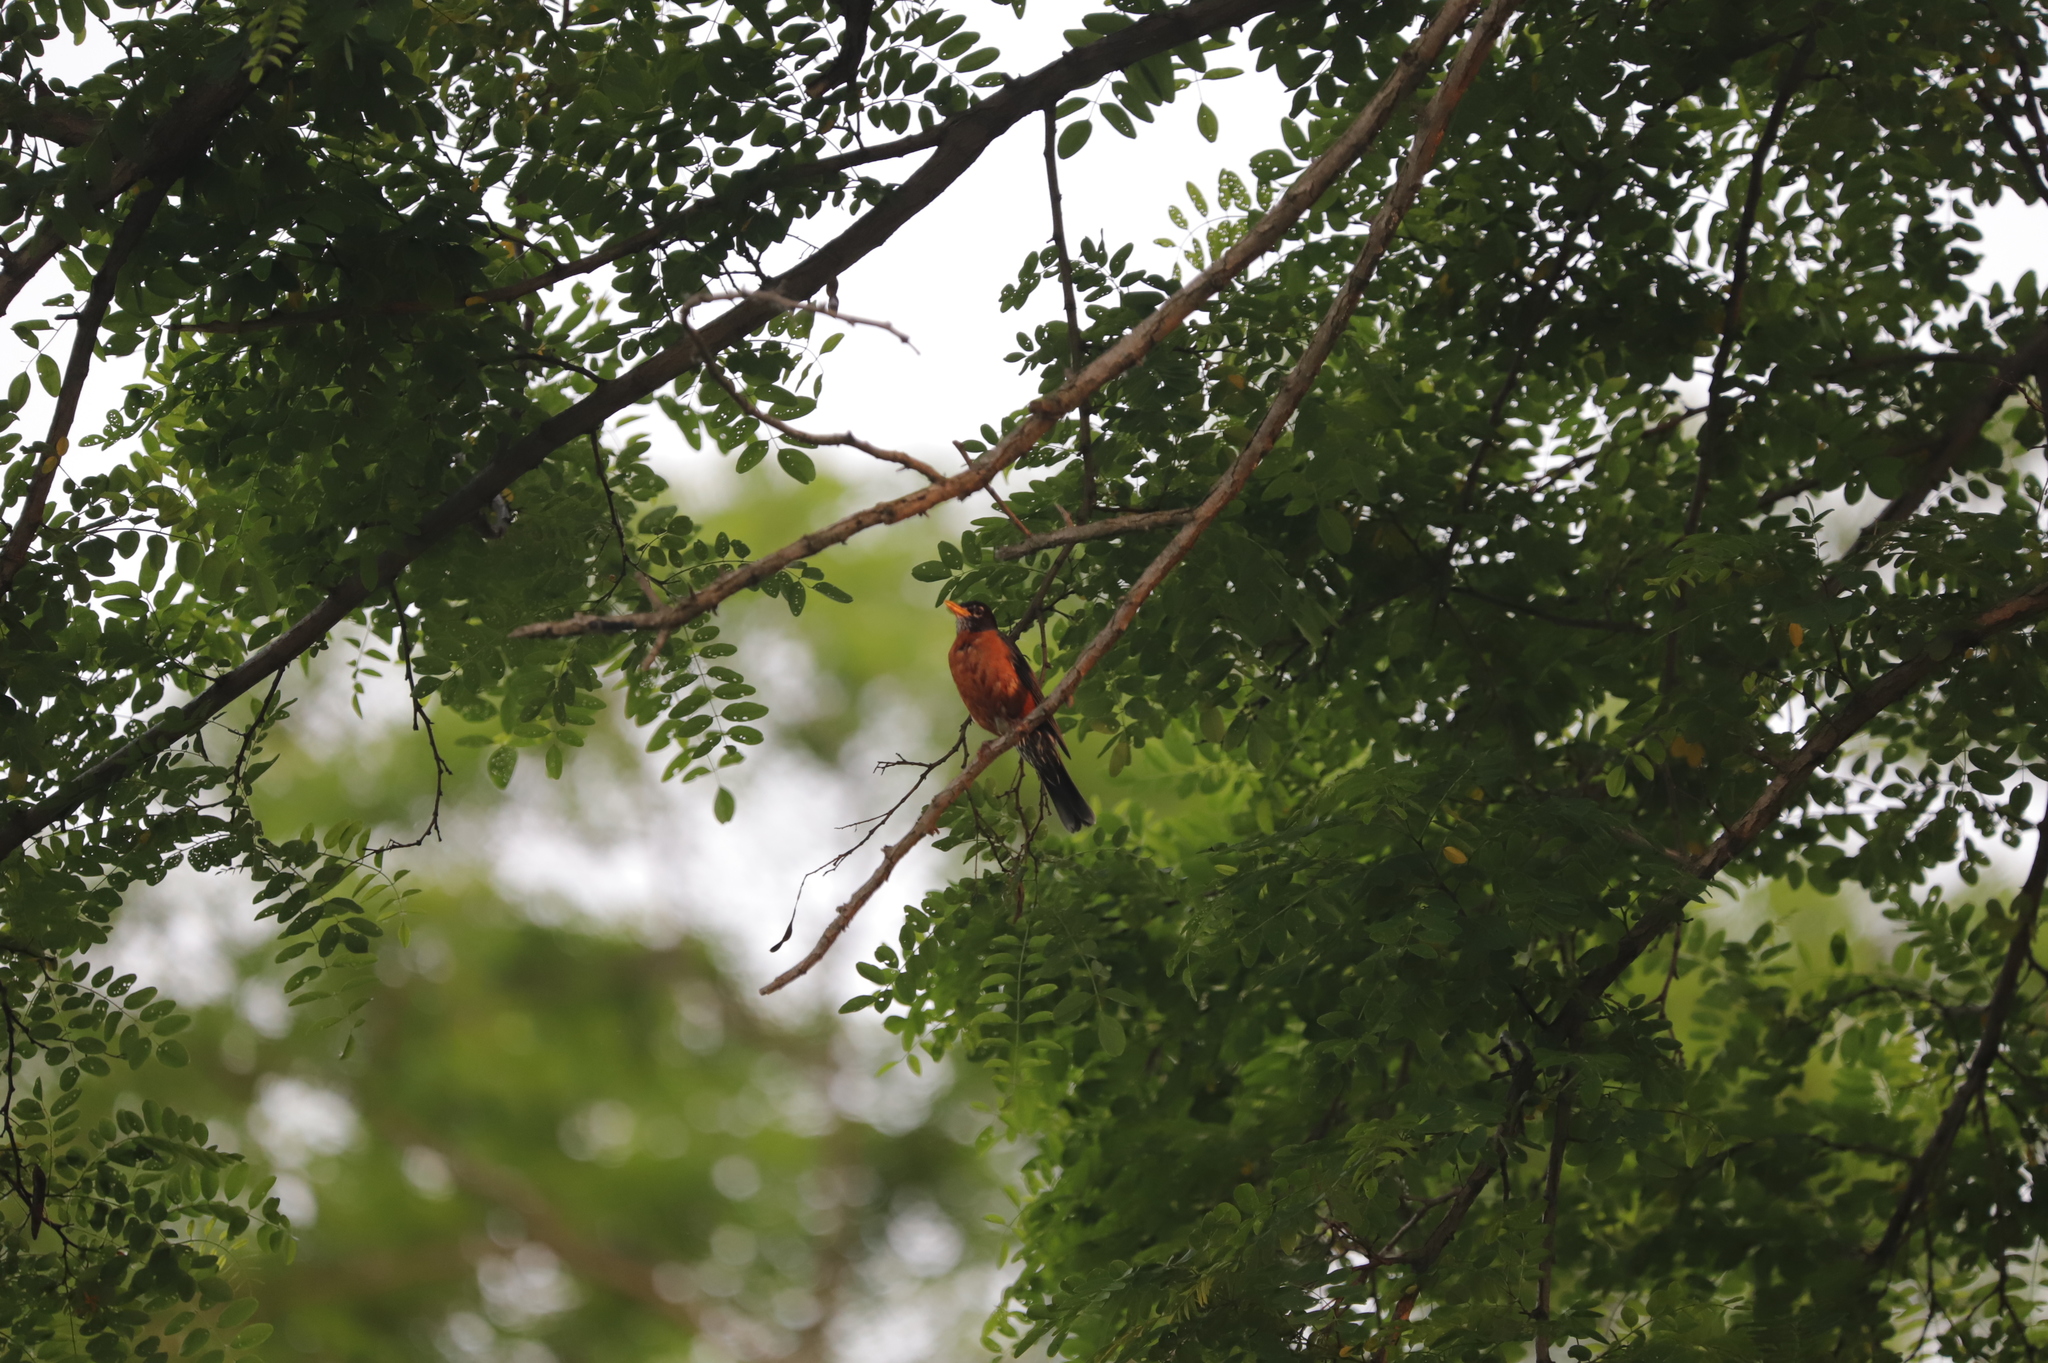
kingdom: Animalia
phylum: Chordata
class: Aves
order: Passeriformes
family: Turdidae
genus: Turdus
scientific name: Turdus migratorius
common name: American robin
